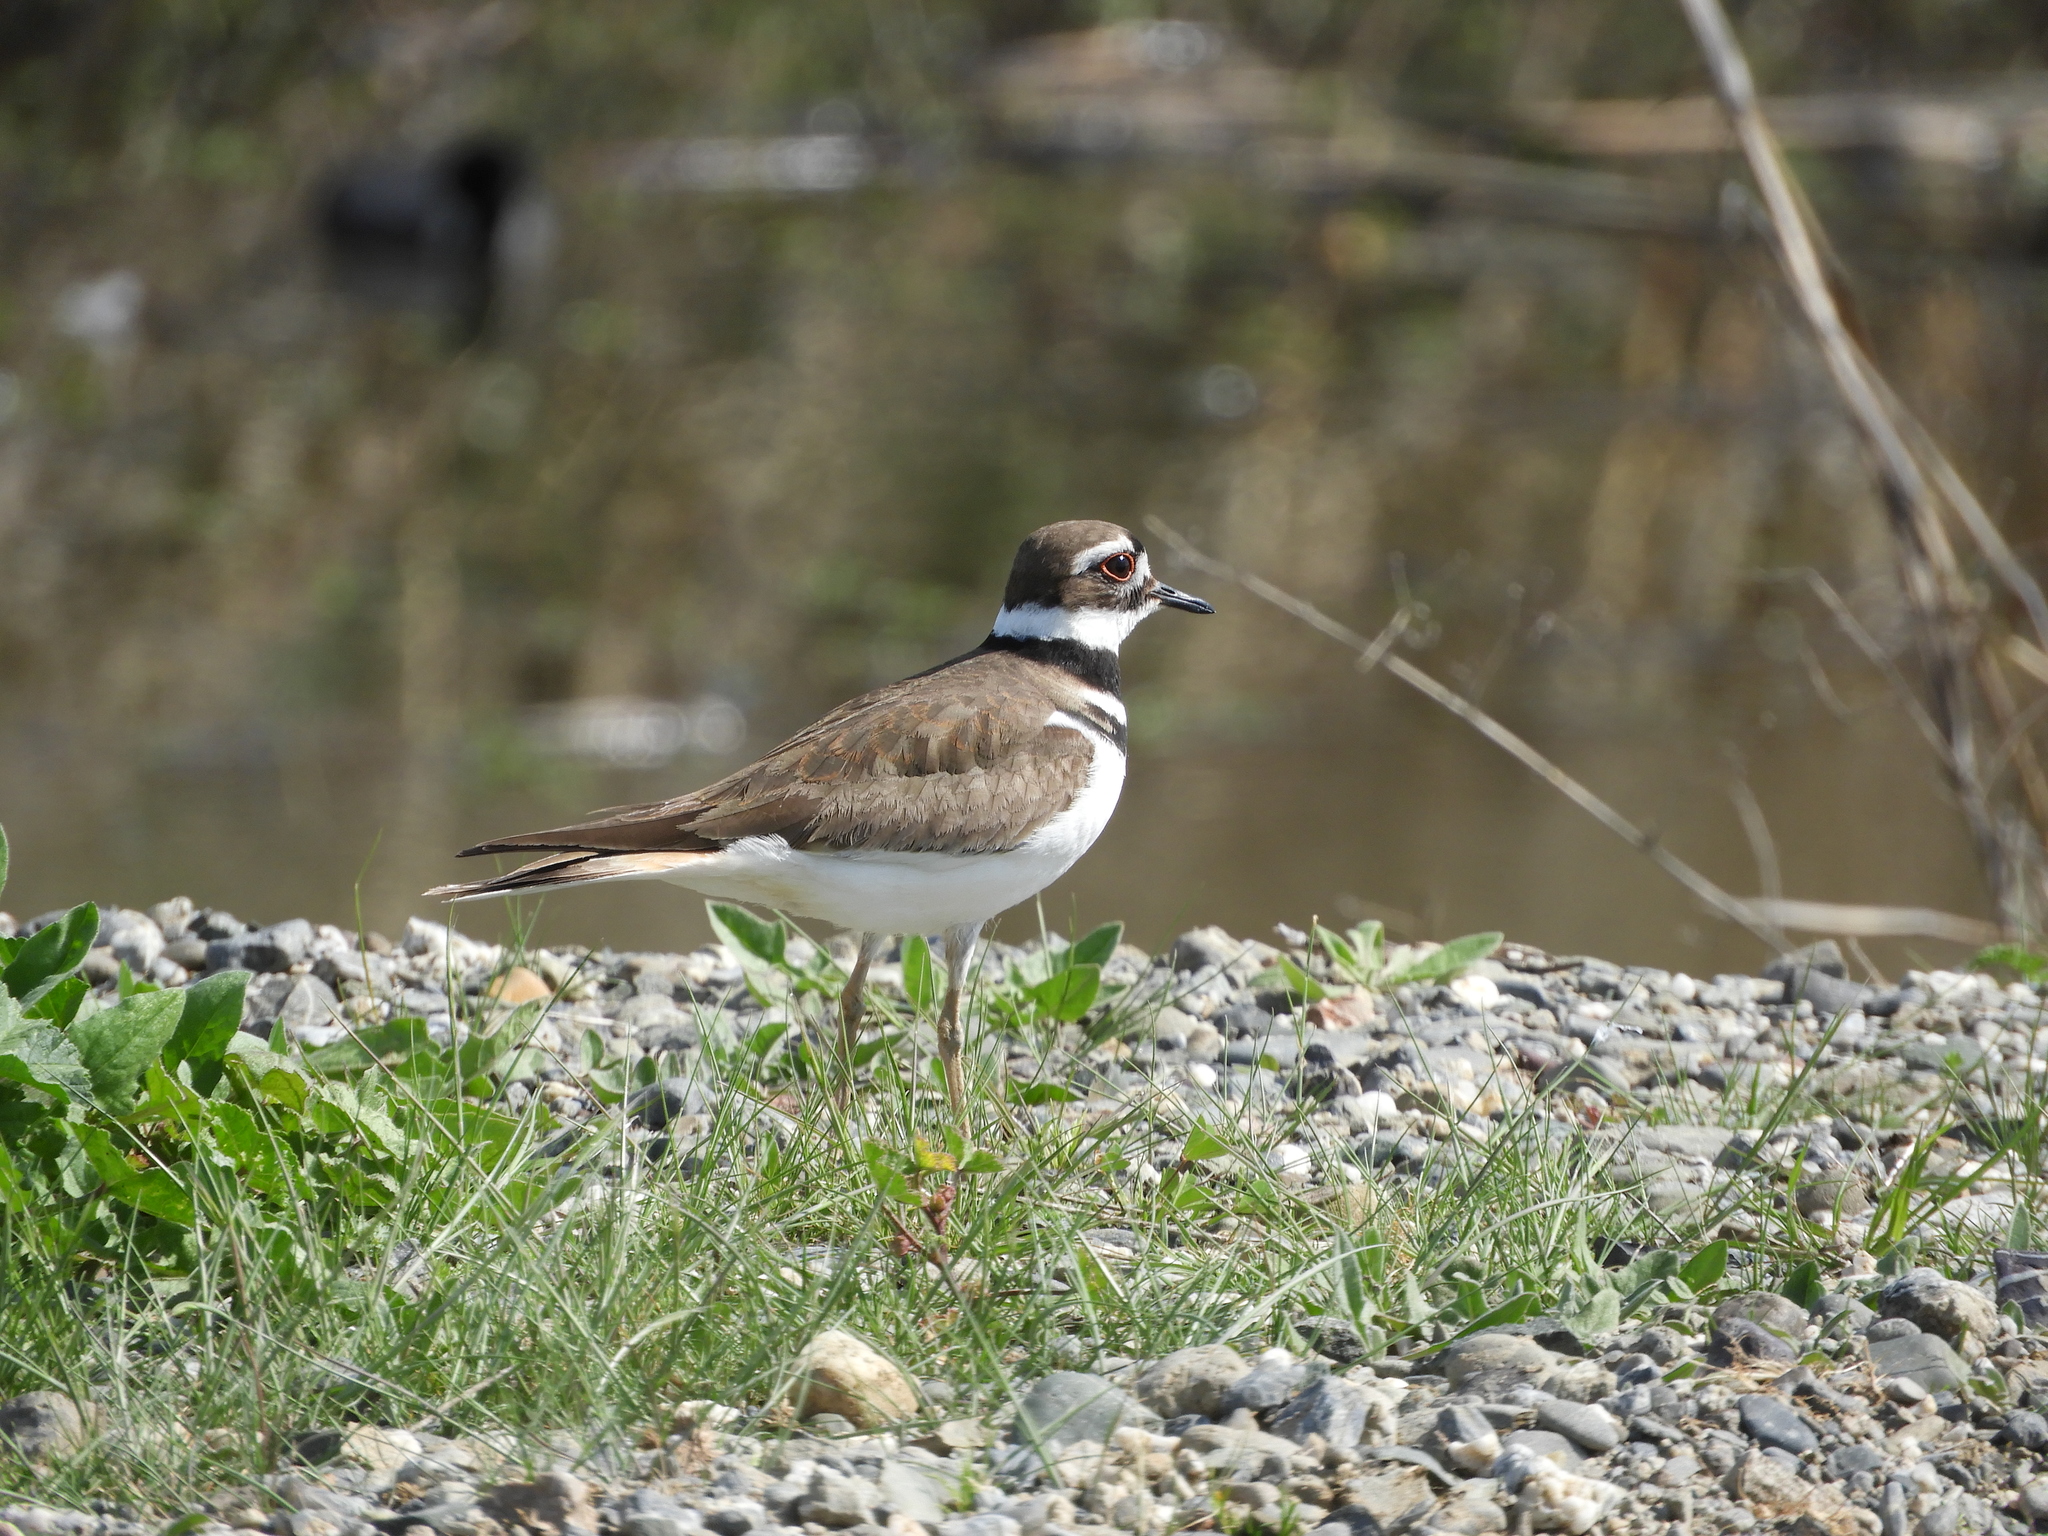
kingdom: Animalia
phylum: Chordata
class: Aves
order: Charadriiformes
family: Charadriidae
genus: Charadrius
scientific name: Charadrius vociferus
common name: Killdeer
